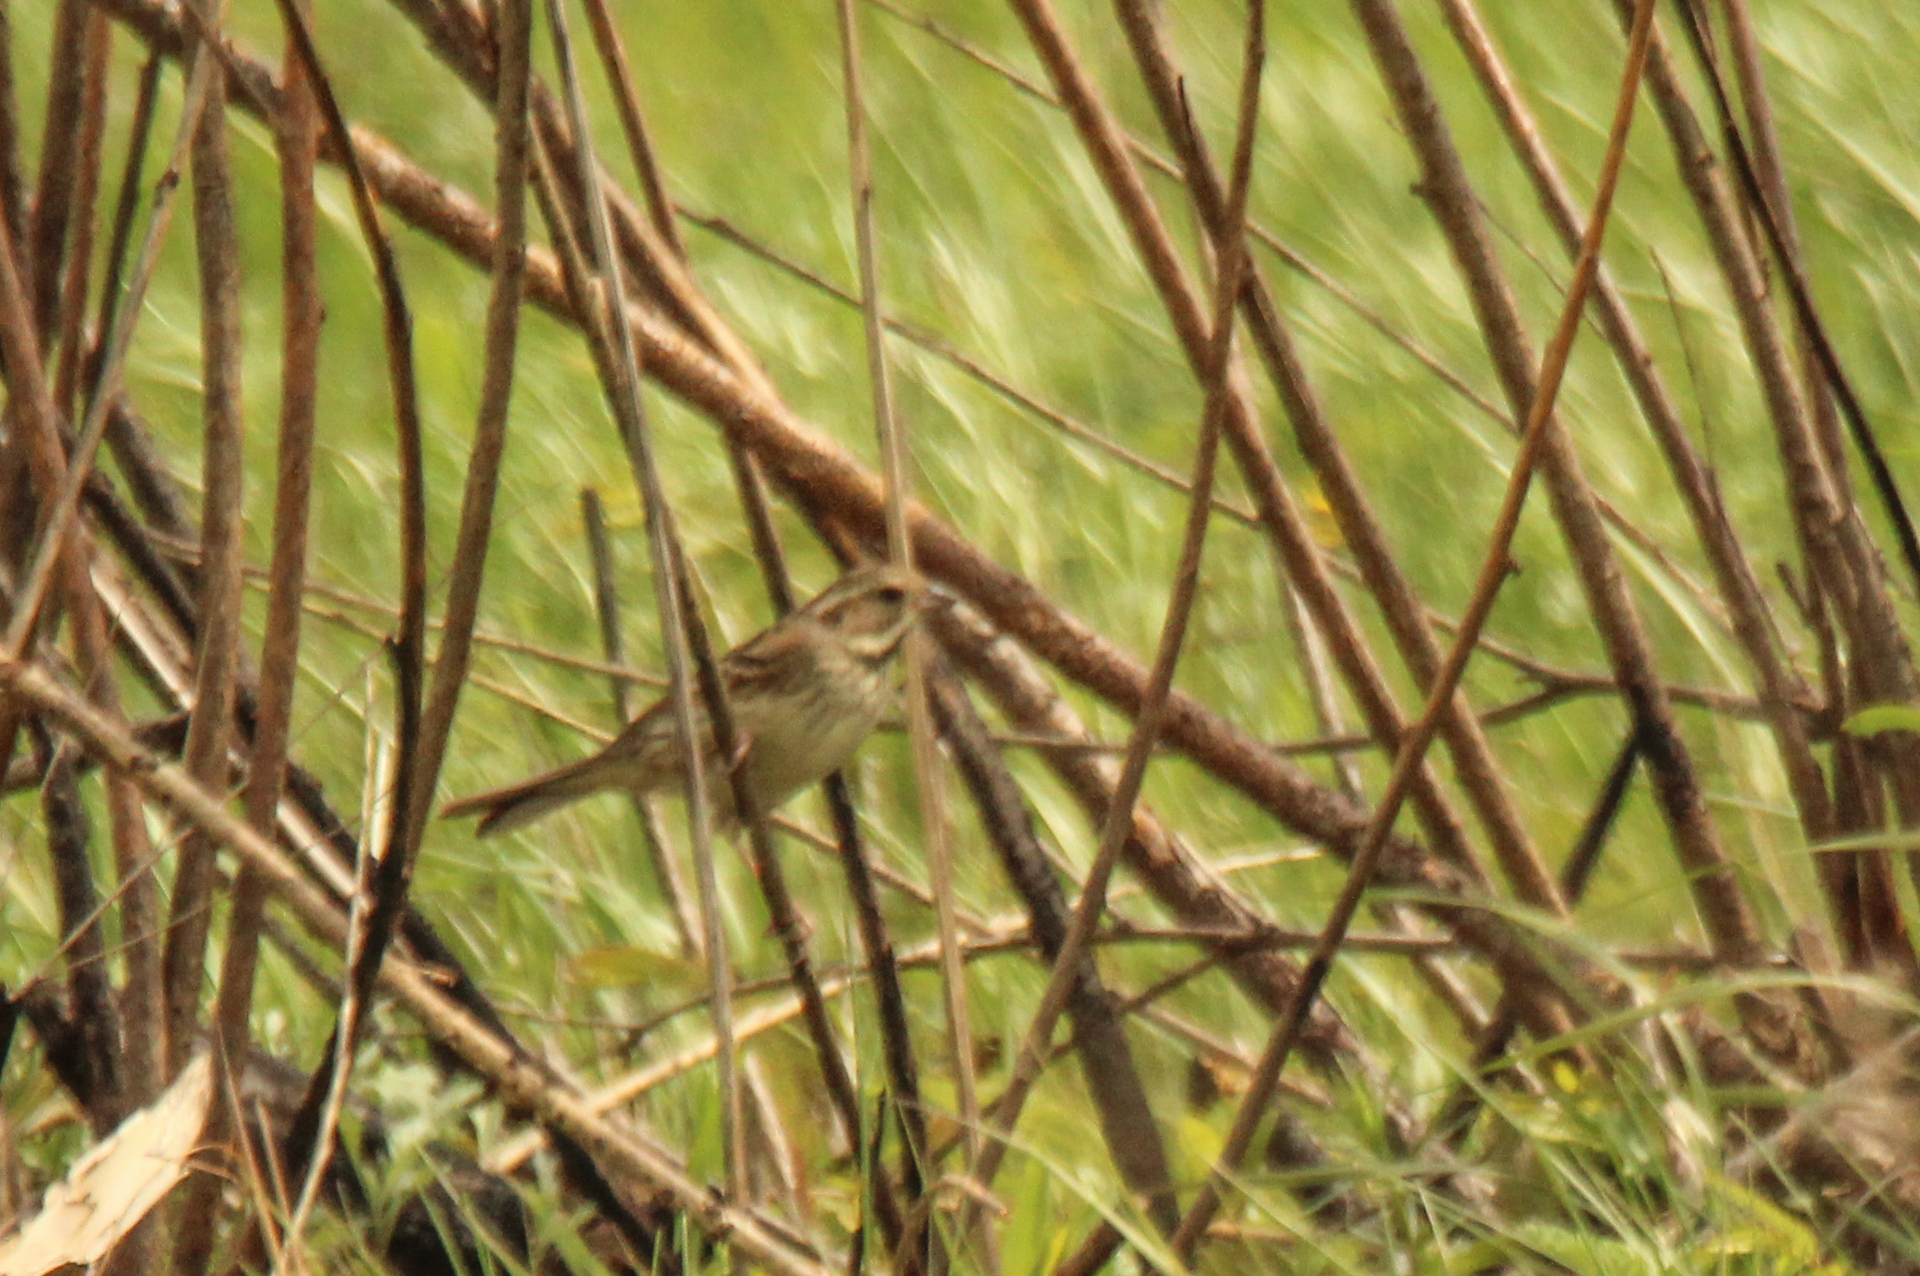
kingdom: Animalia
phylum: Chordata
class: Aves
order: Passeriformes
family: Emberizidae
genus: Emberiza
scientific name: Emberiza spodocephala
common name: Black-faced bunting
